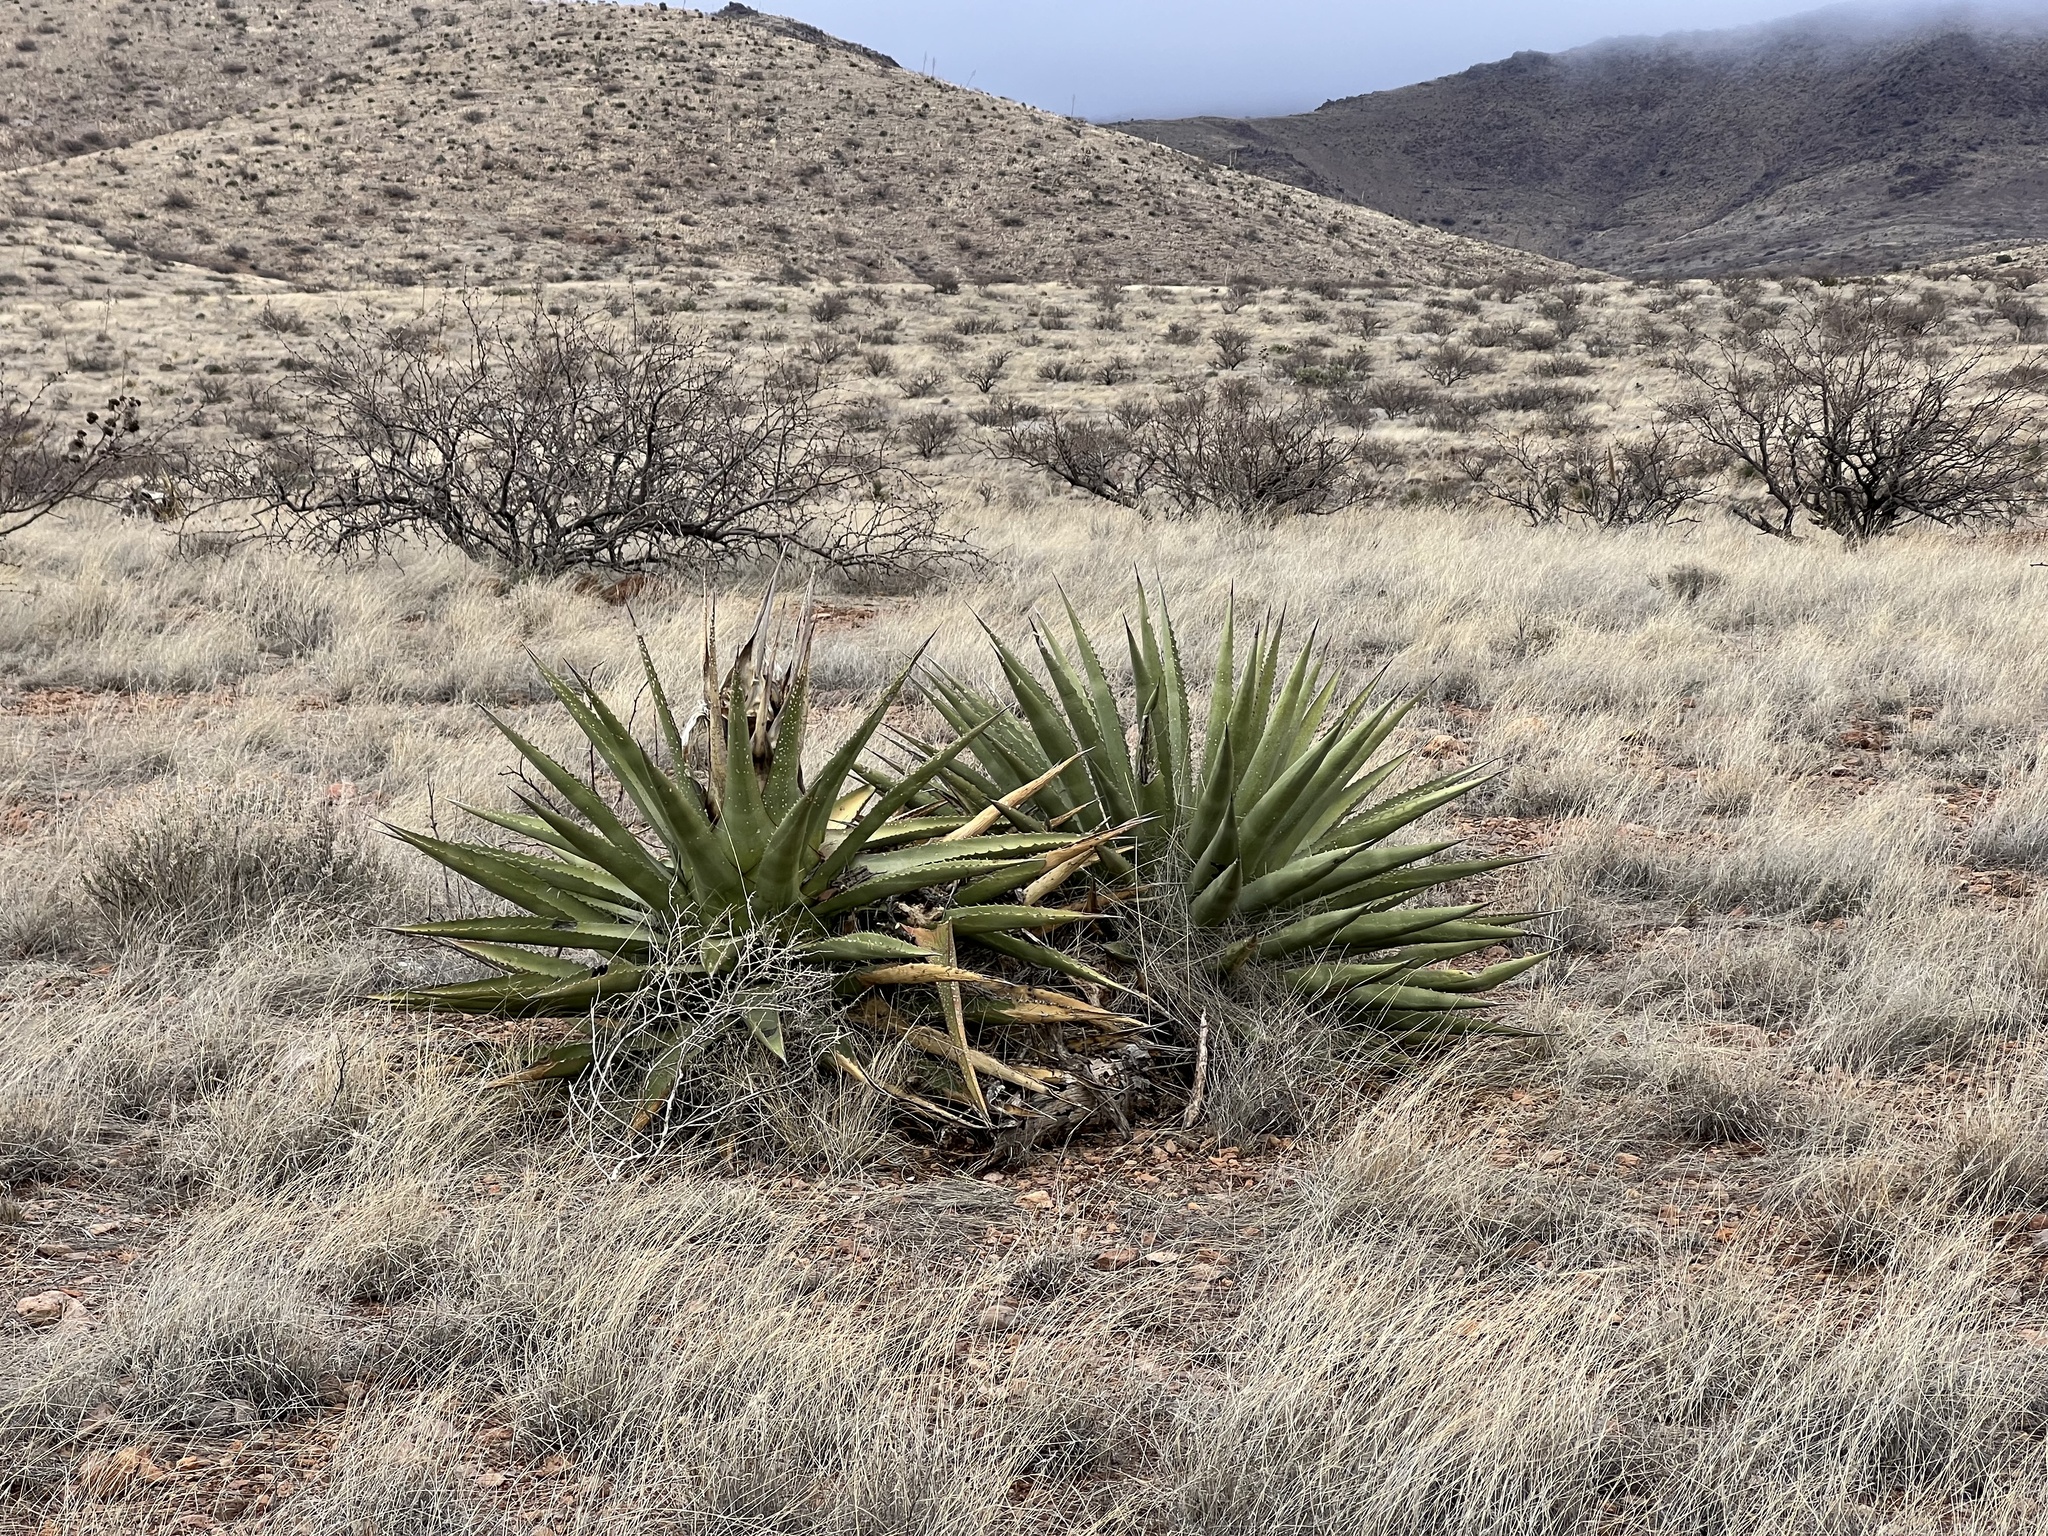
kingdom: Plantae
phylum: Tracheophyta
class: Liliopsida
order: Asparagales
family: Asparagaceae
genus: Agave
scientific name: Agave palmeri
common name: Palmer agave
